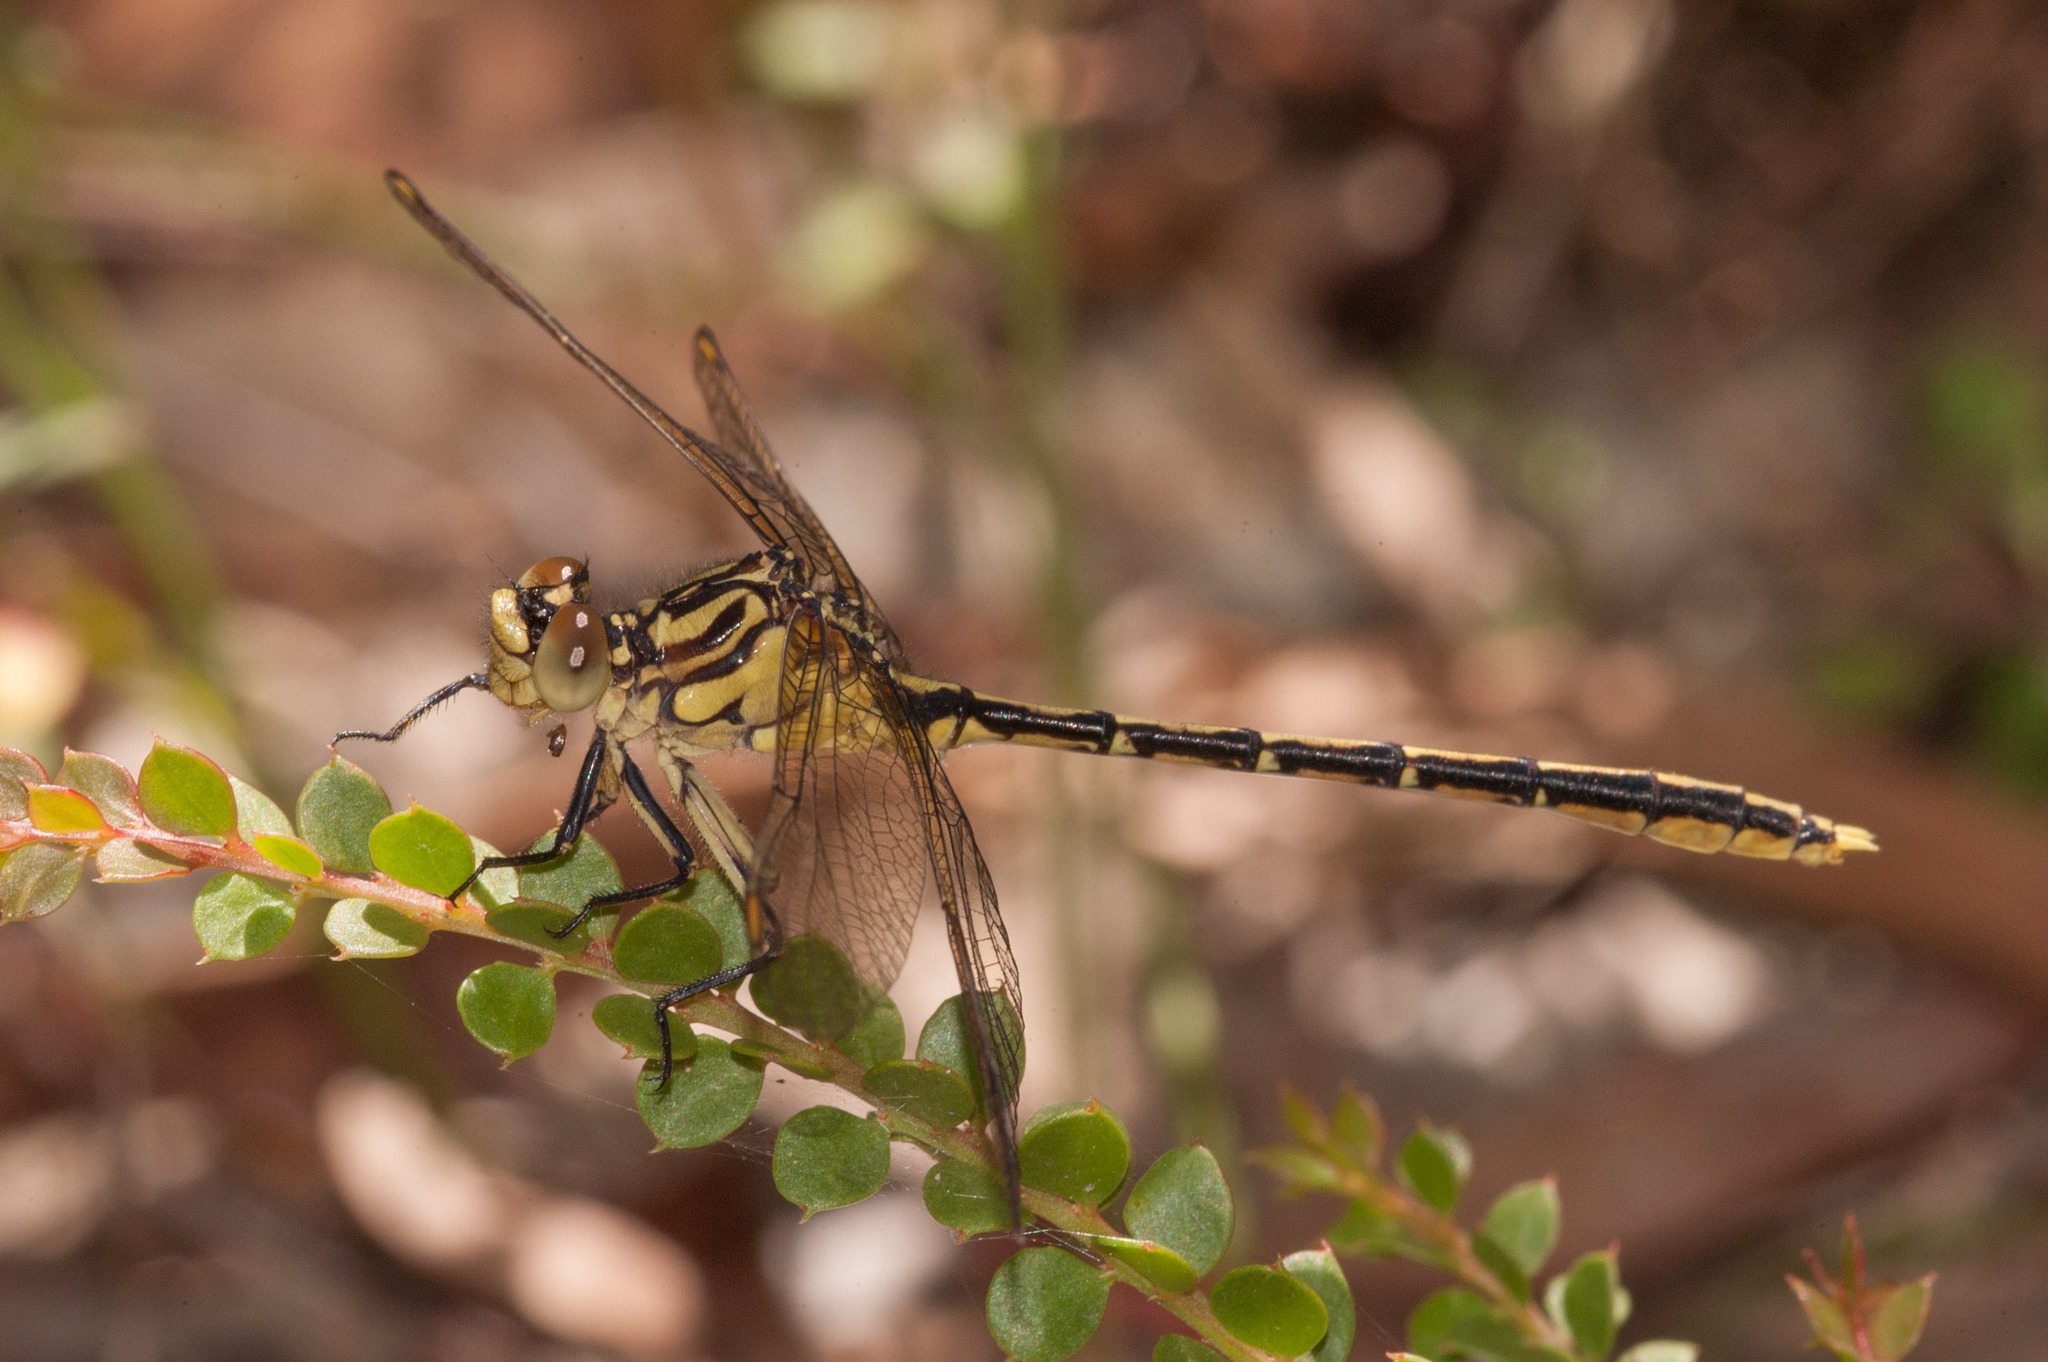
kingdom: Animalia
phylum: Arthropoda
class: Insecta
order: Odonata
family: Gomphidae
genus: Austrogomphus
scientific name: Austrogomphus guerini
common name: Yellow-striped hunter
